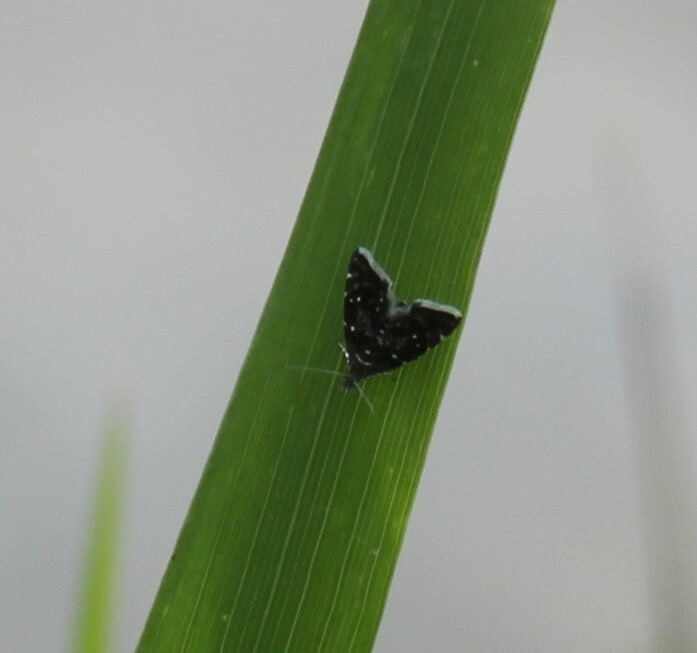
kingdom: Animalia
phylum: Arthropoda
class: Insecta
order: Lepidoptera
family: Choreutidae
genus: Choreutis
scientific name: Choreutis
